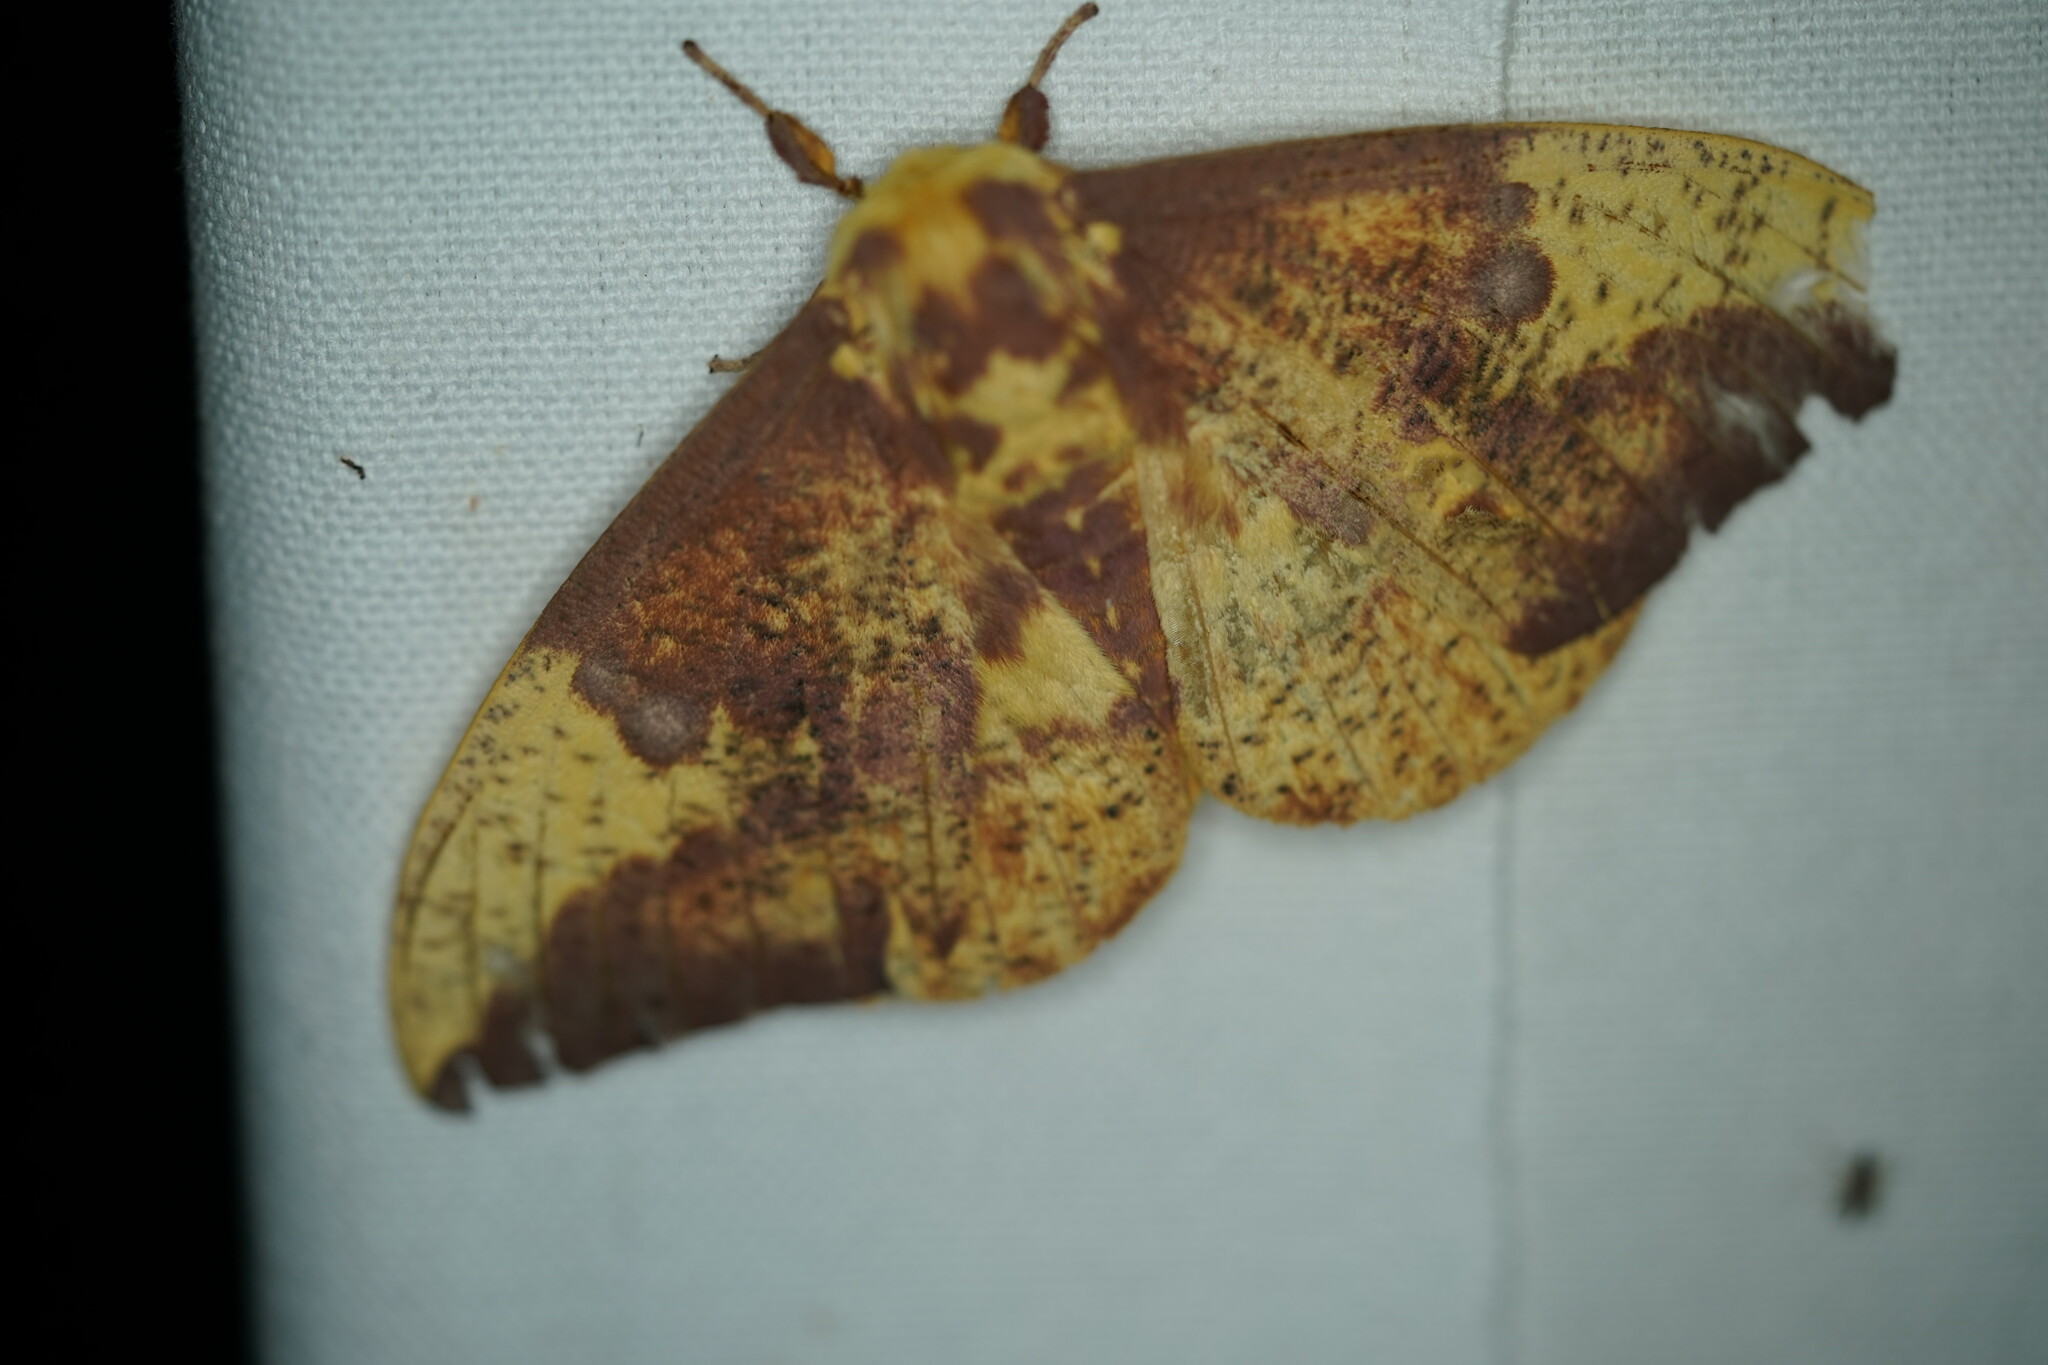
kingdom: Animalia
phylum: Arthropoda
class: Insecta
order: Lepidoptera
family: Saturniidae
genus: Eacles
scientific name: Eacles imperialis
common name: Imperial moth
